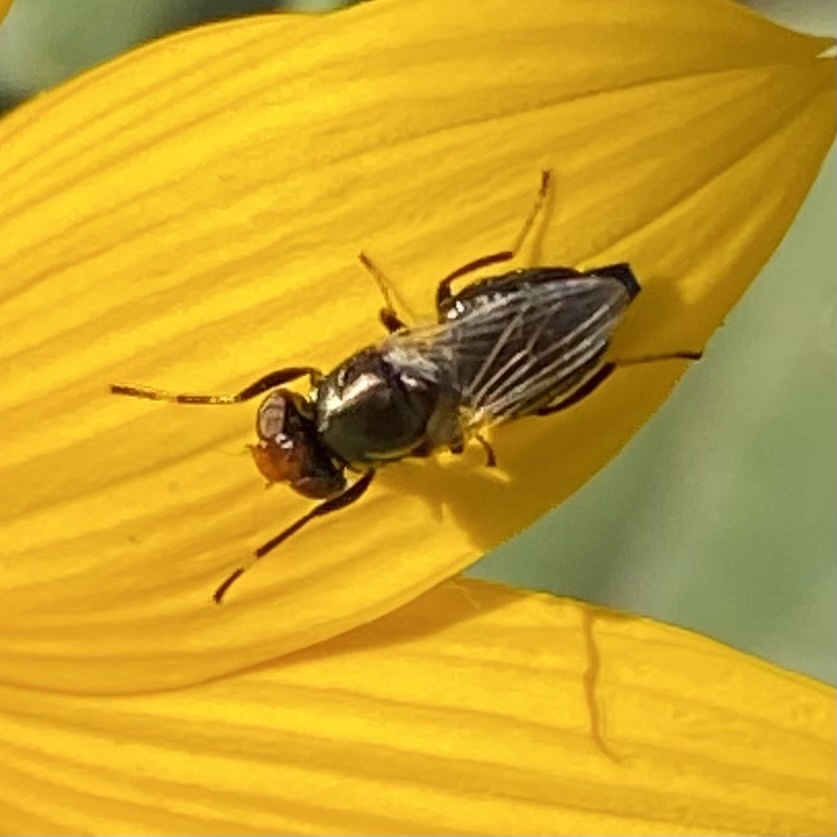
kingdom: Animalia
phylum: Arthropoda
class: Insecta
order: Diptera
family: Ulidiidae
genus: Physiphora
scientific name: Physiphora alceae
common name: Picture-winged fly
